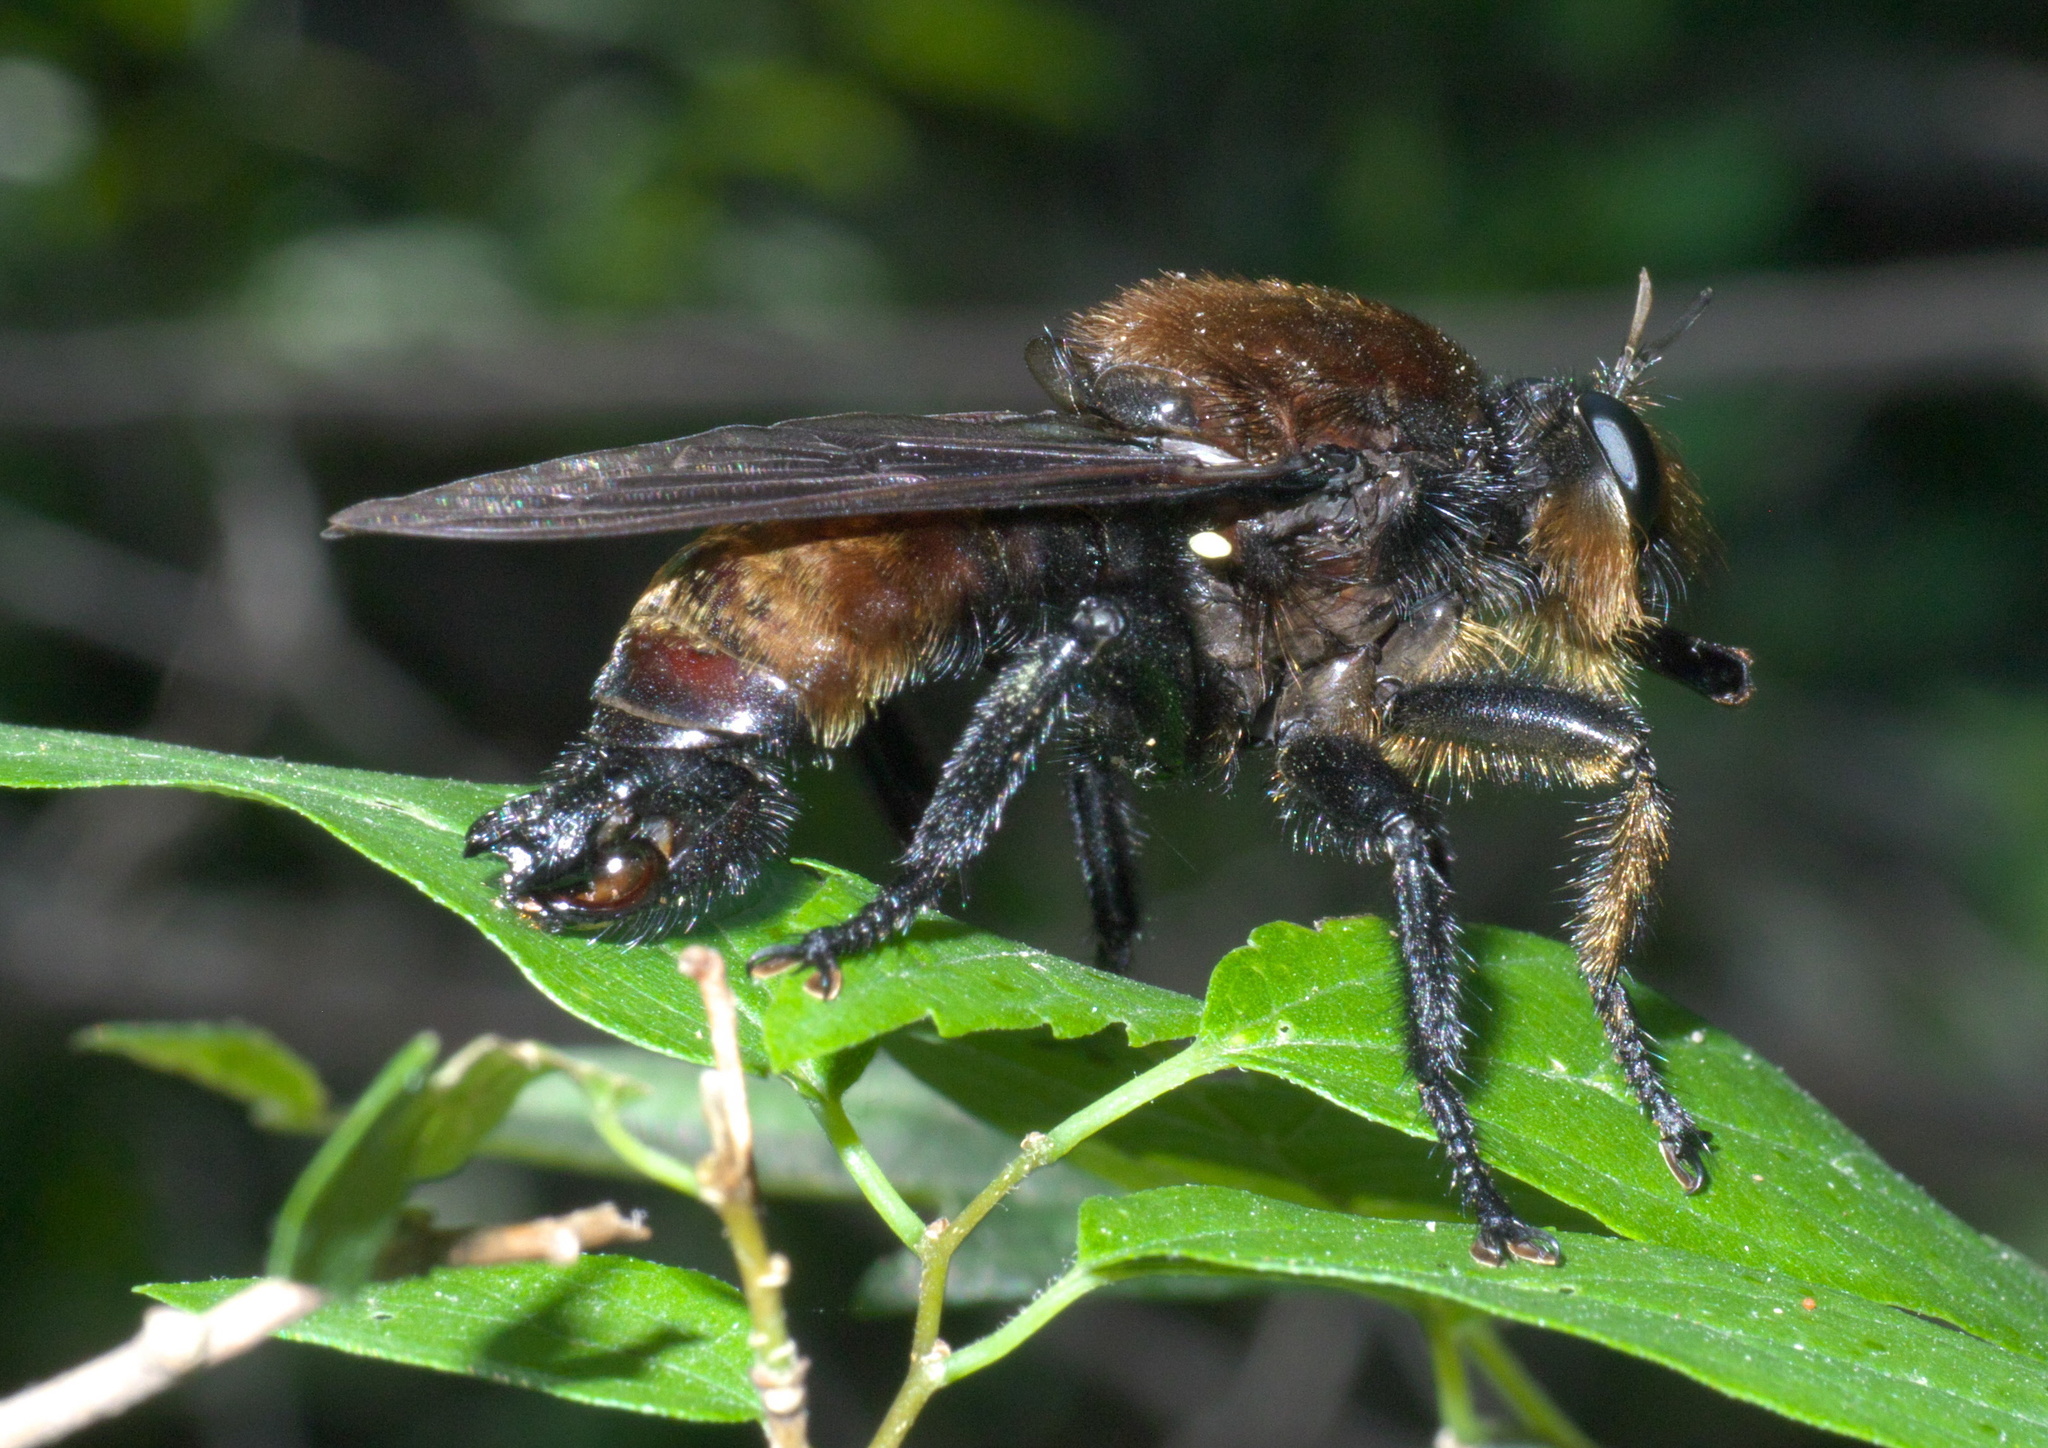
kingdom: Animalia
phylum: Arthropoda
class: Insecta
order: Diptera
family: Asilidae
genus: Laphria
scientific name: Laphria lata
